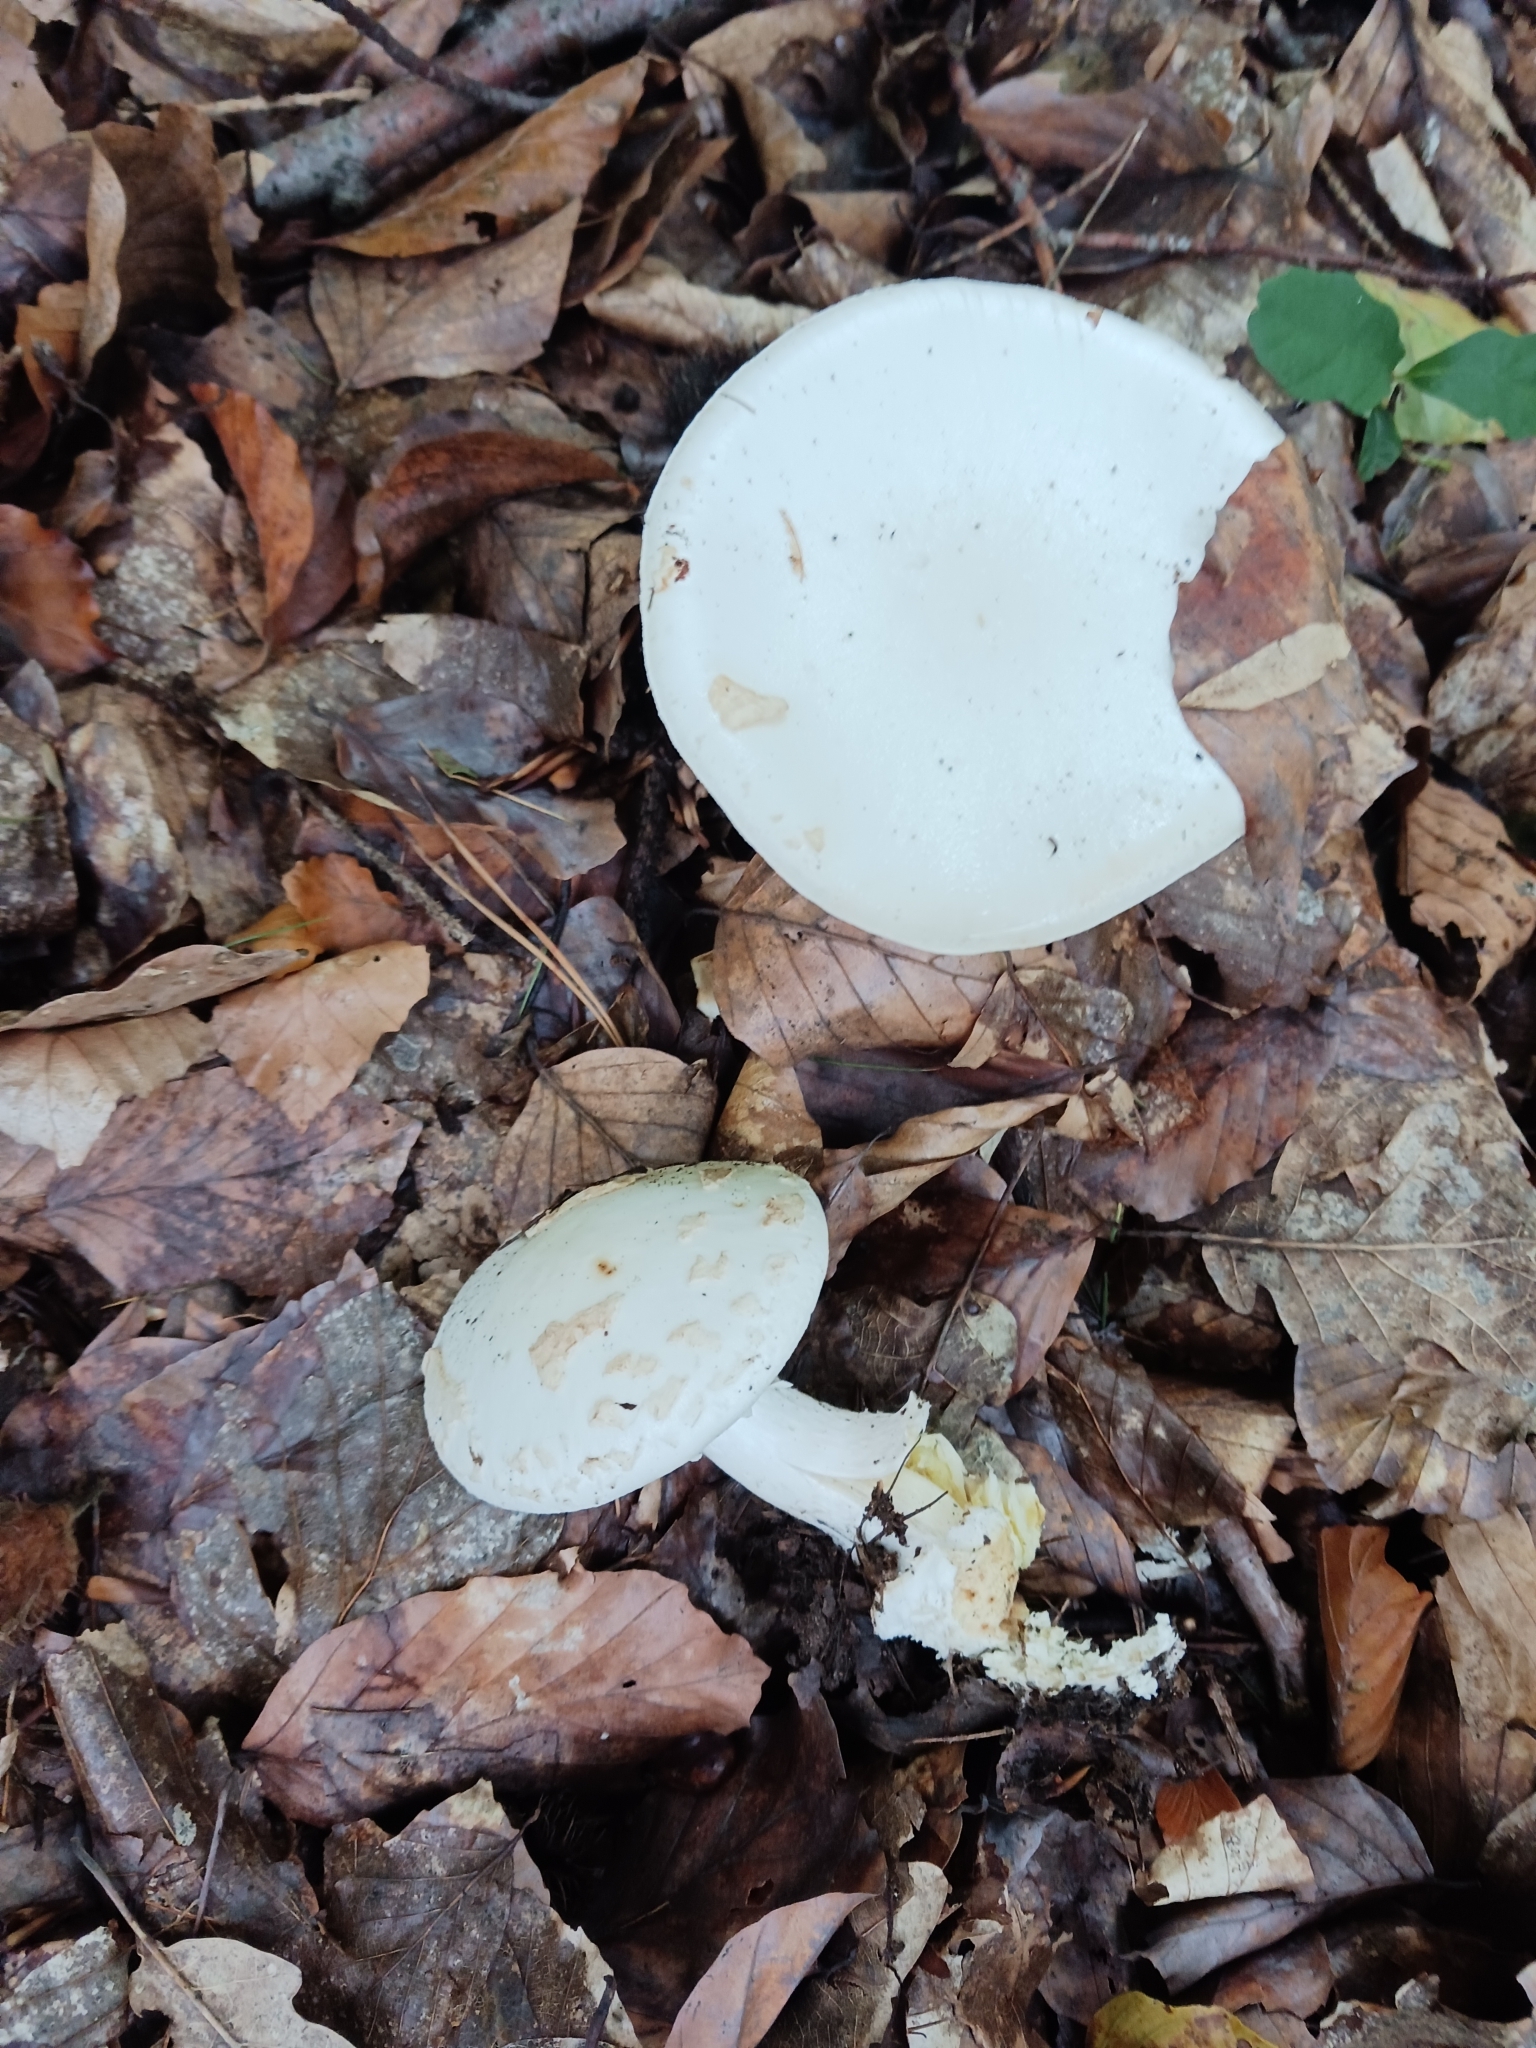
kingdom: Fungi
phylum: Basidiomycota
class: Agaricomycetes
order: Agaricales
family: Amanitaceae
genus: Amanita
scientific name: Amanita citrina
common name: False death-cap
